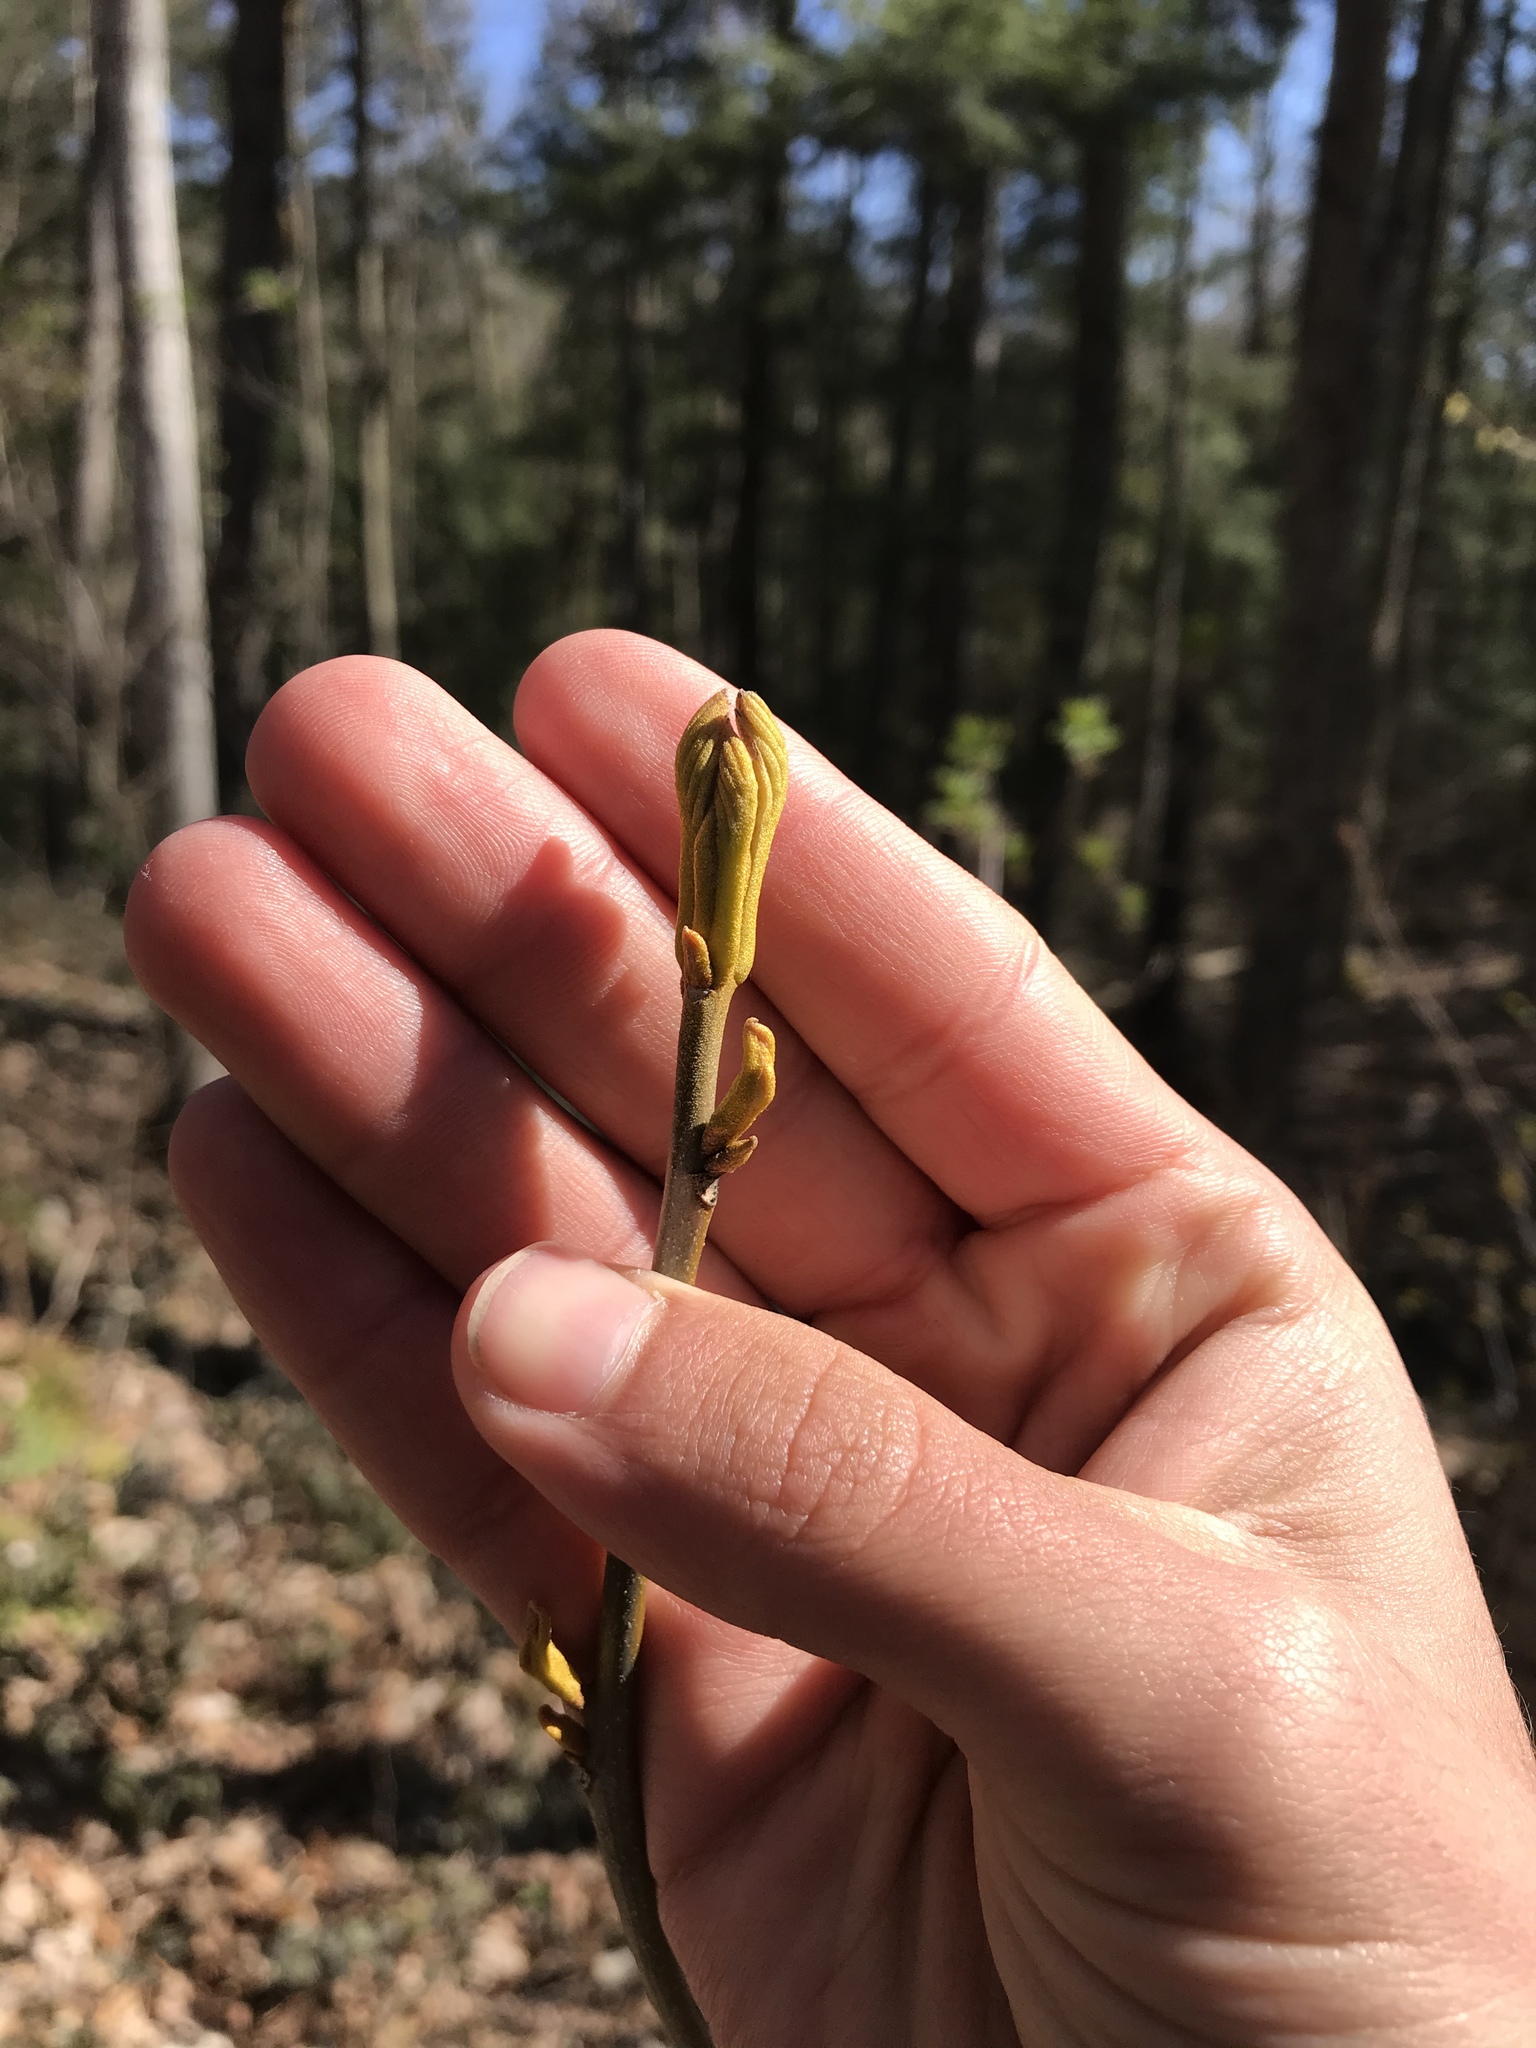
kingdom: Plantae
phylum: Tracheophyta
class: Magnoliopsida
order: Fagales
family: Juglandaceae
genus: Carya
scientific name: Carya cordiformis
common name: Bitternut hickory
